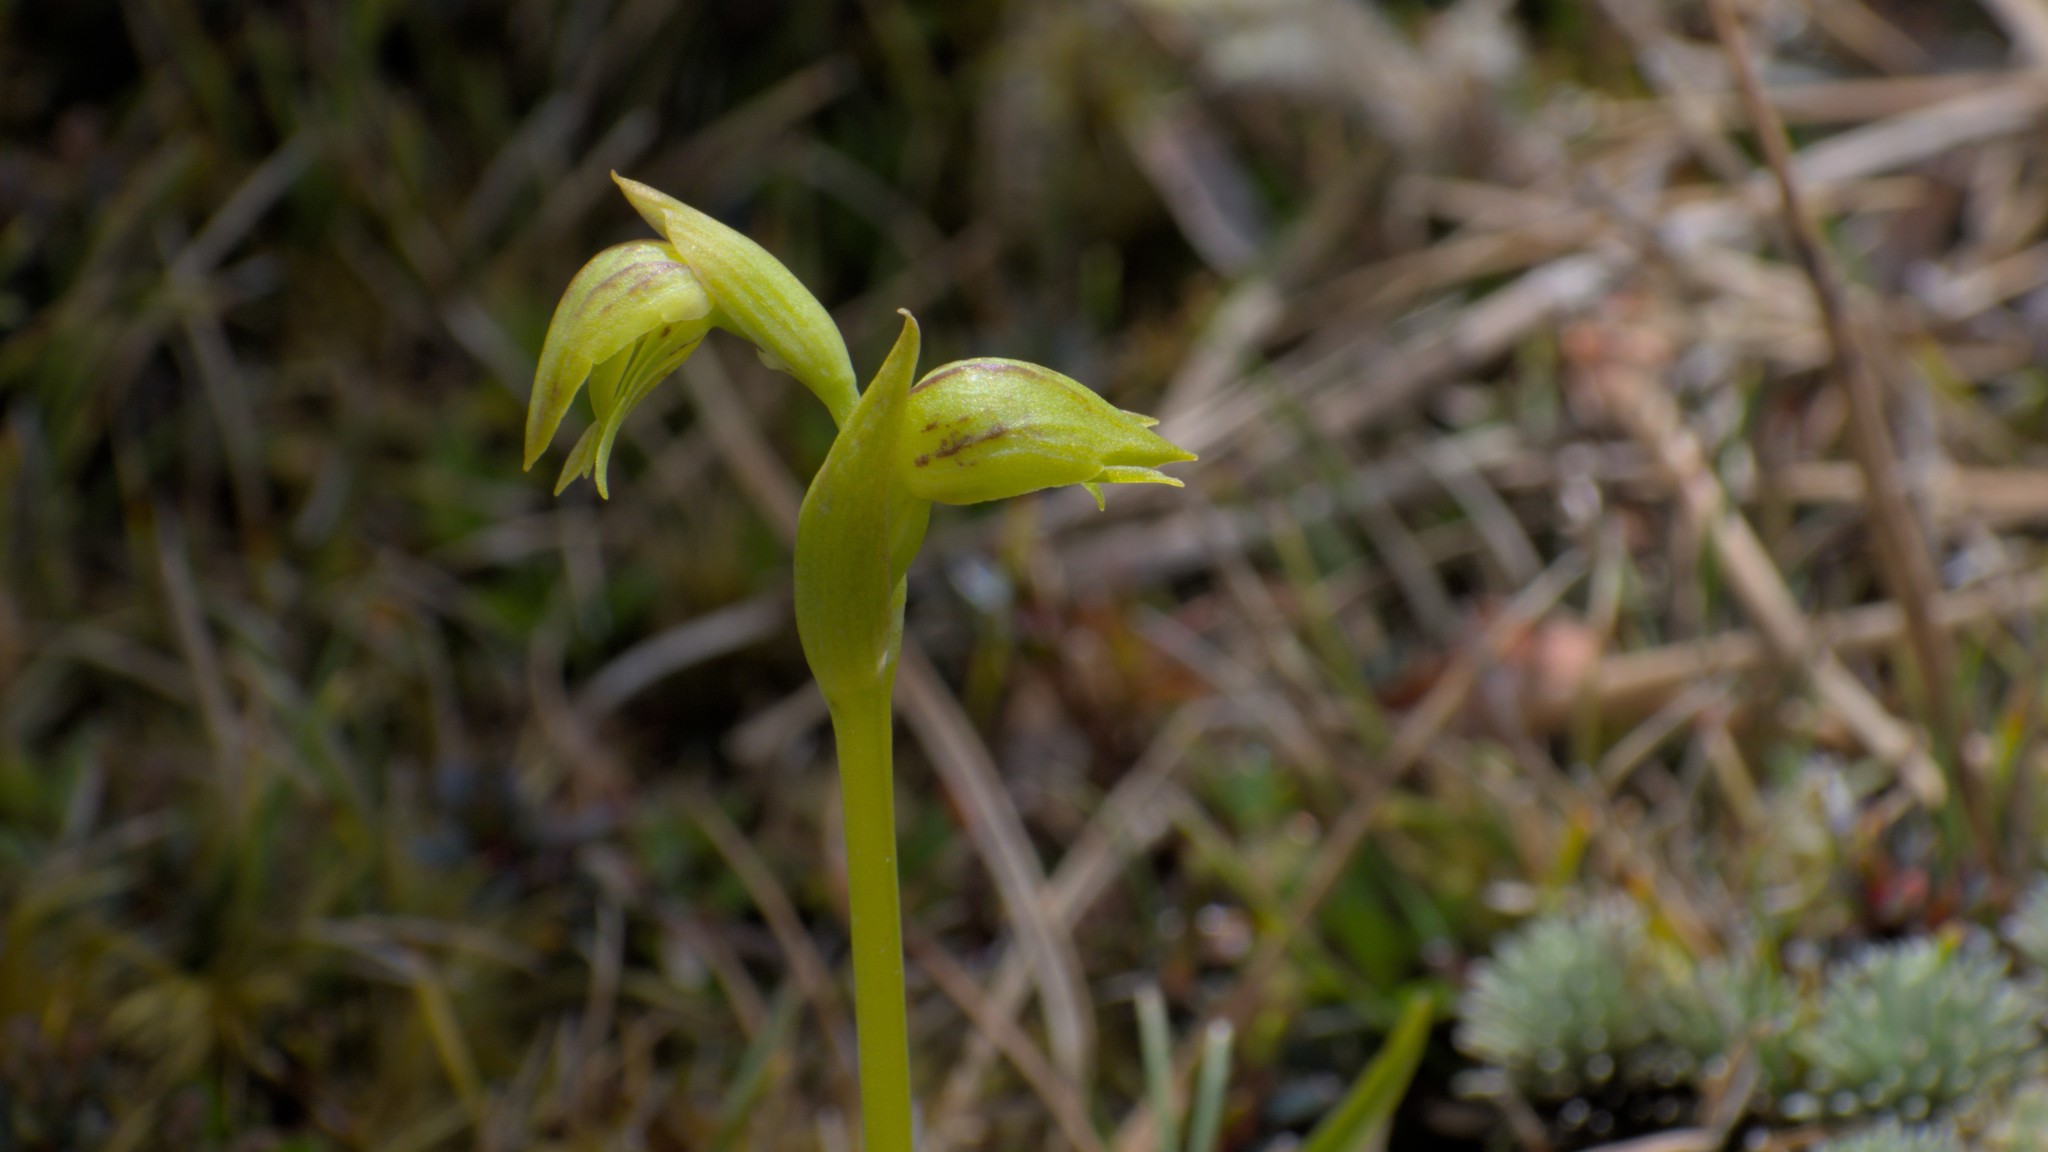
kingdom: Plantae
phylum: Tracheophyta
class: Liliopsida
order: Asparagales
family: Orchidaceae
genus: Waireia
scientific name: Waireia stenopetala
